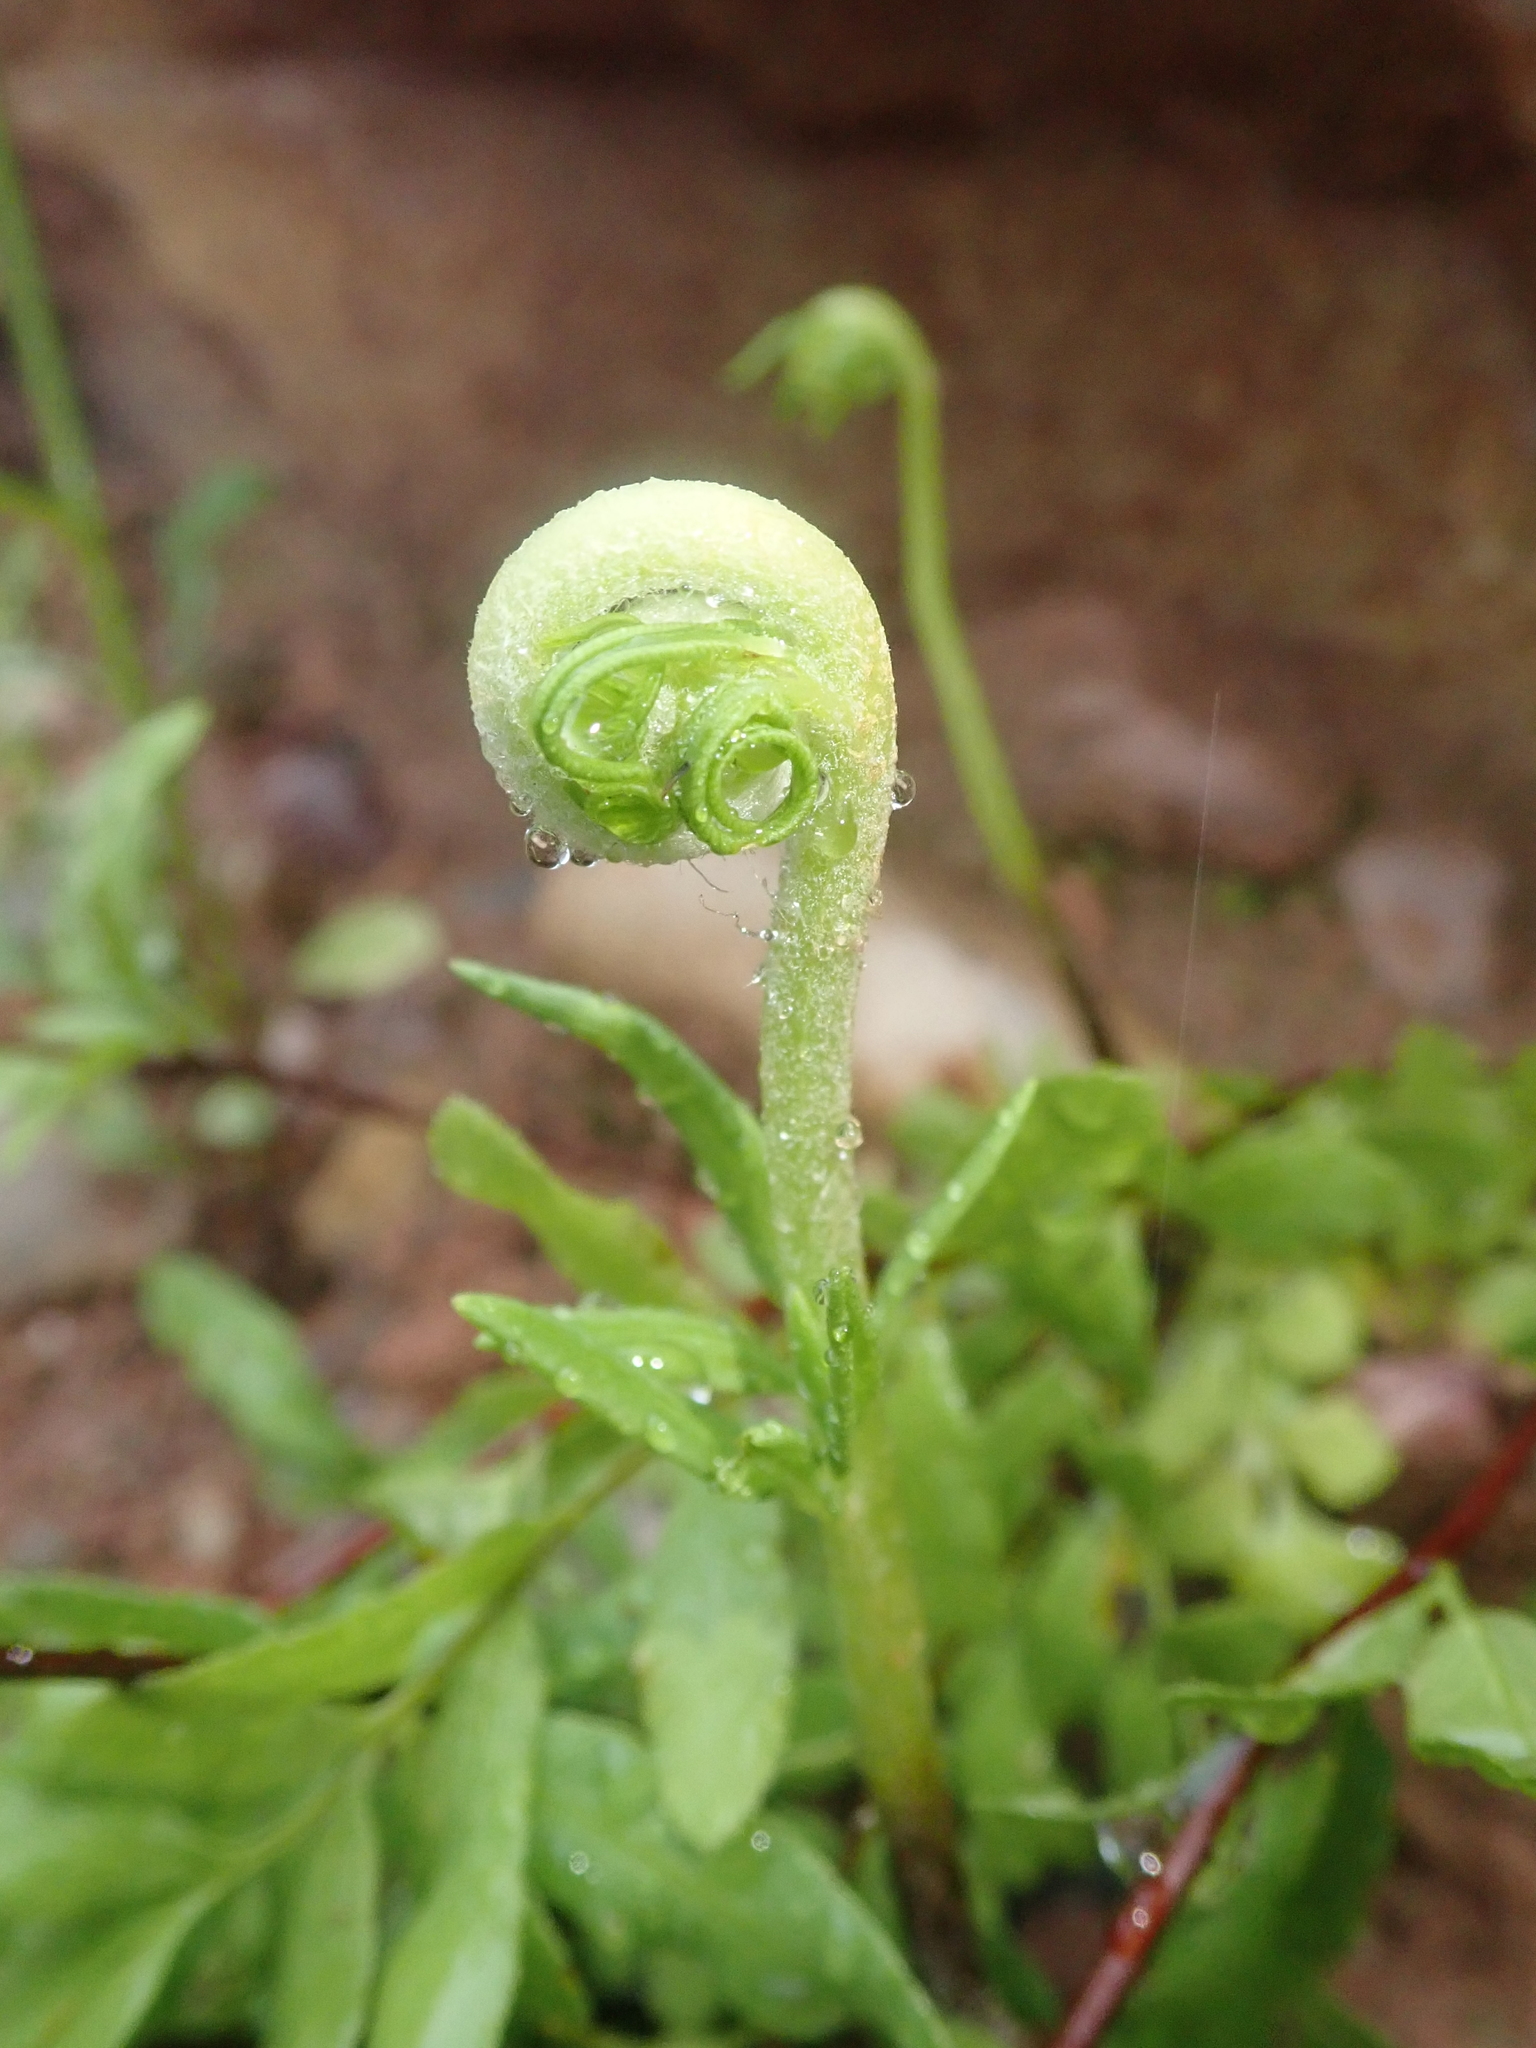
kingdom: Plantae
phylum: Tracheophyta
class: Polypodiopsida
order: Polypodiales
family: Pteridaceae
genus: Pityrogramma
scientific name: Pityrogramma trifoliata
